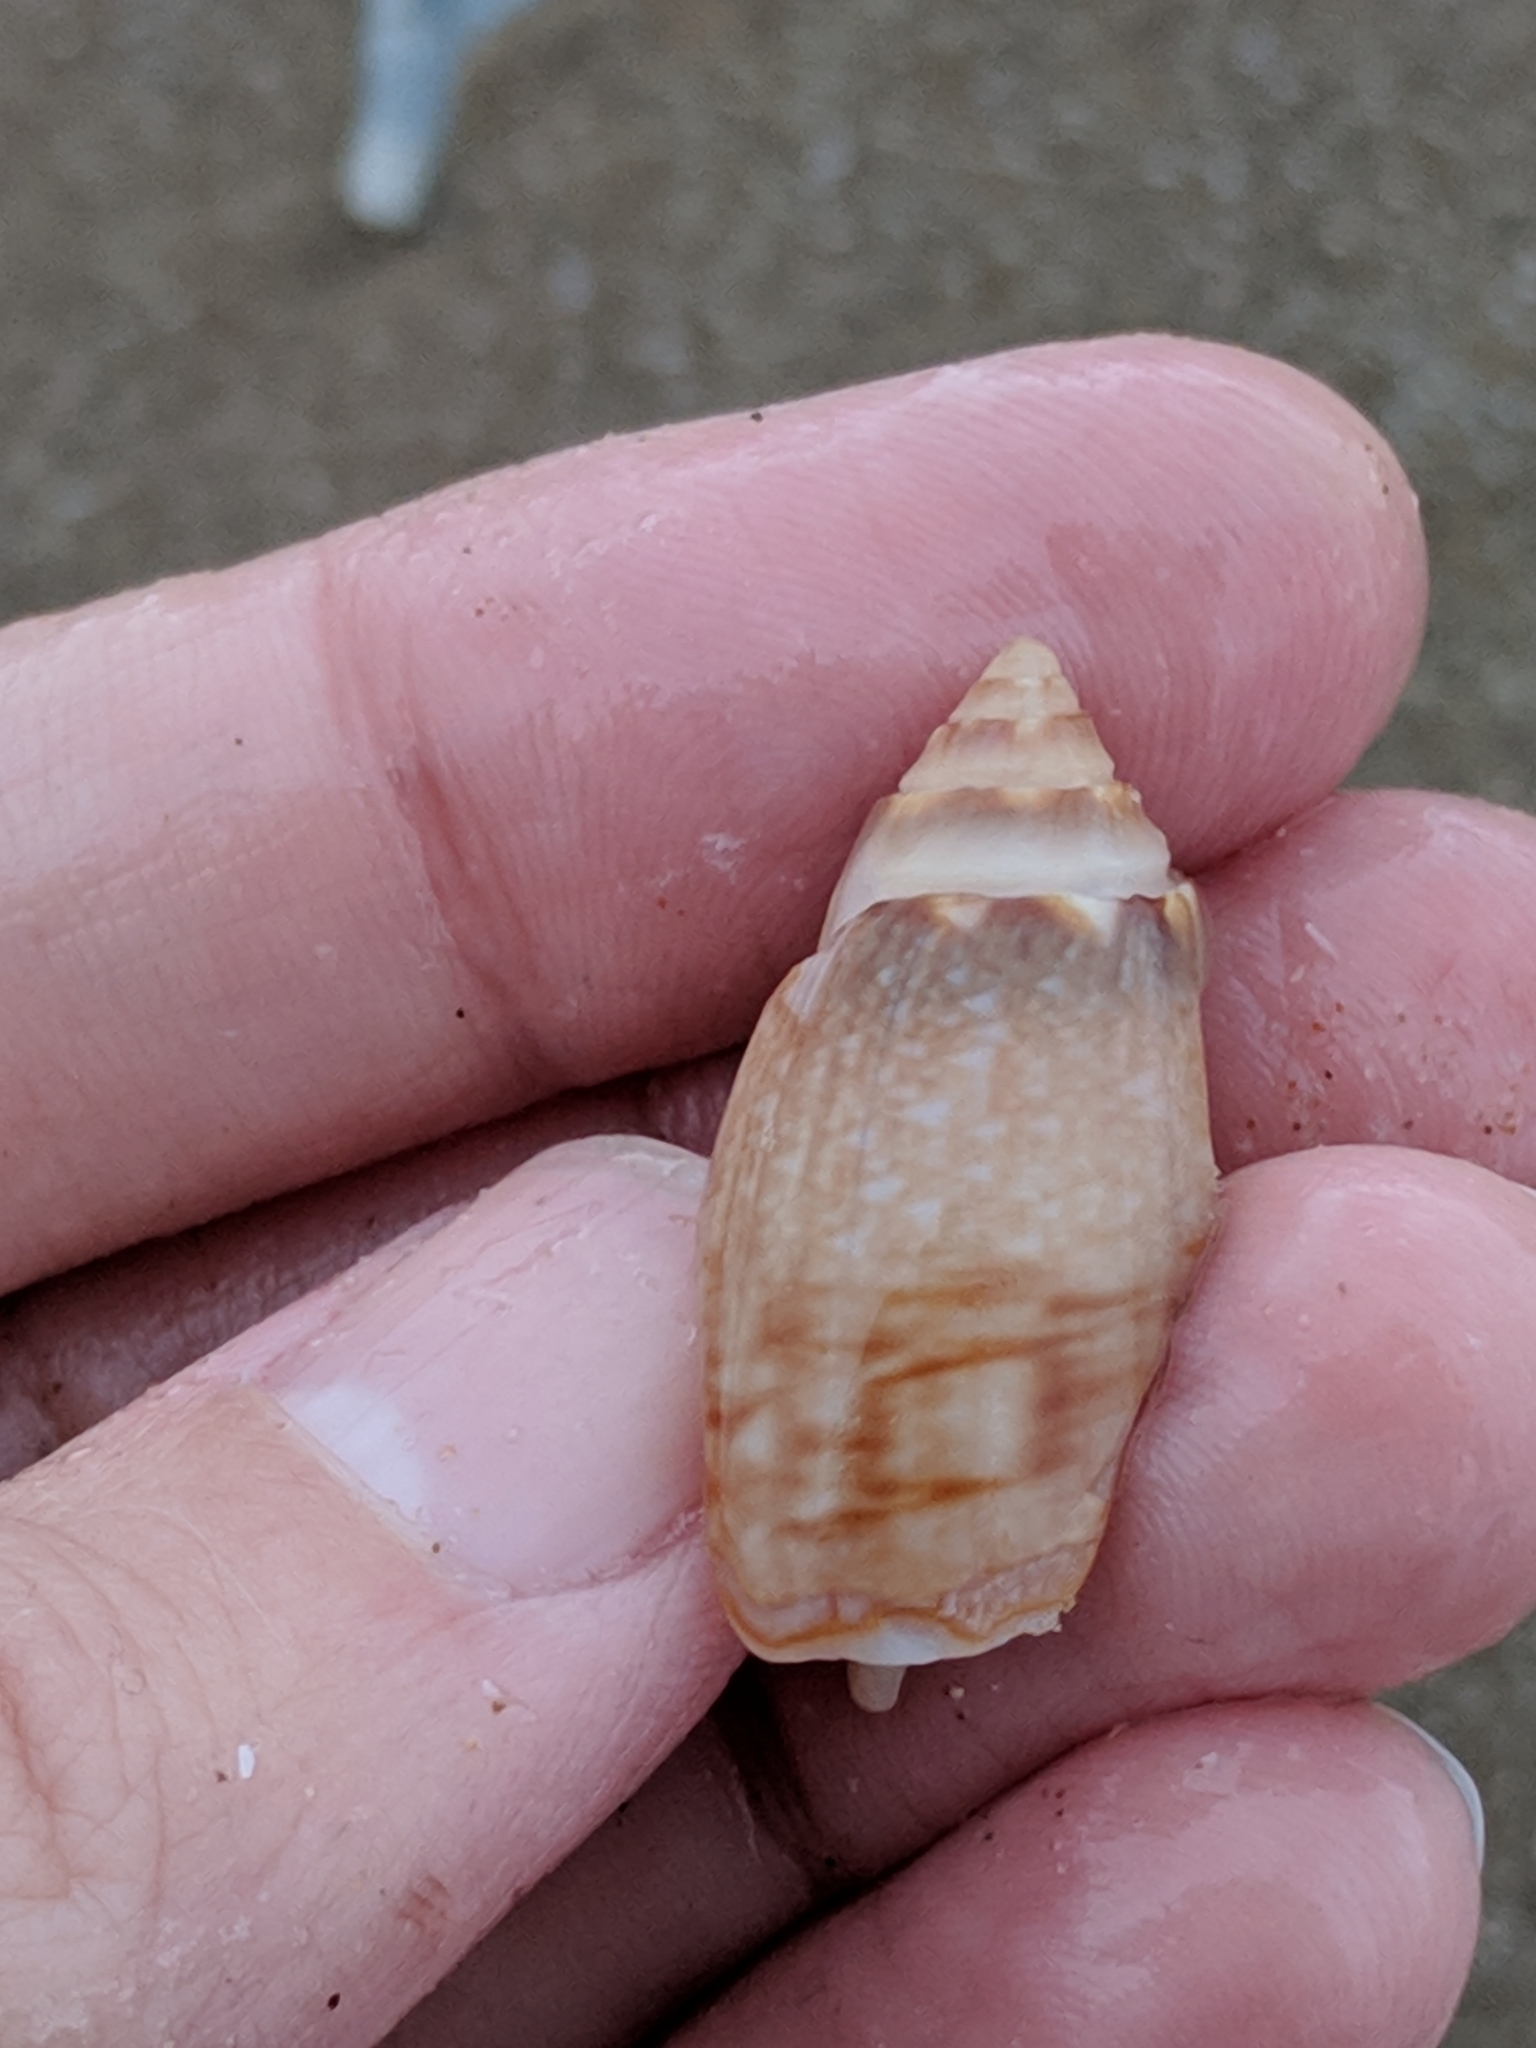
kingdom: Animalia
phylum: Mollusca
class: Gastropoda
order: Neogastropoda
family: Olividae
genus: Oliva
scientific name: Oliva sayana
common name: Lettered olive
